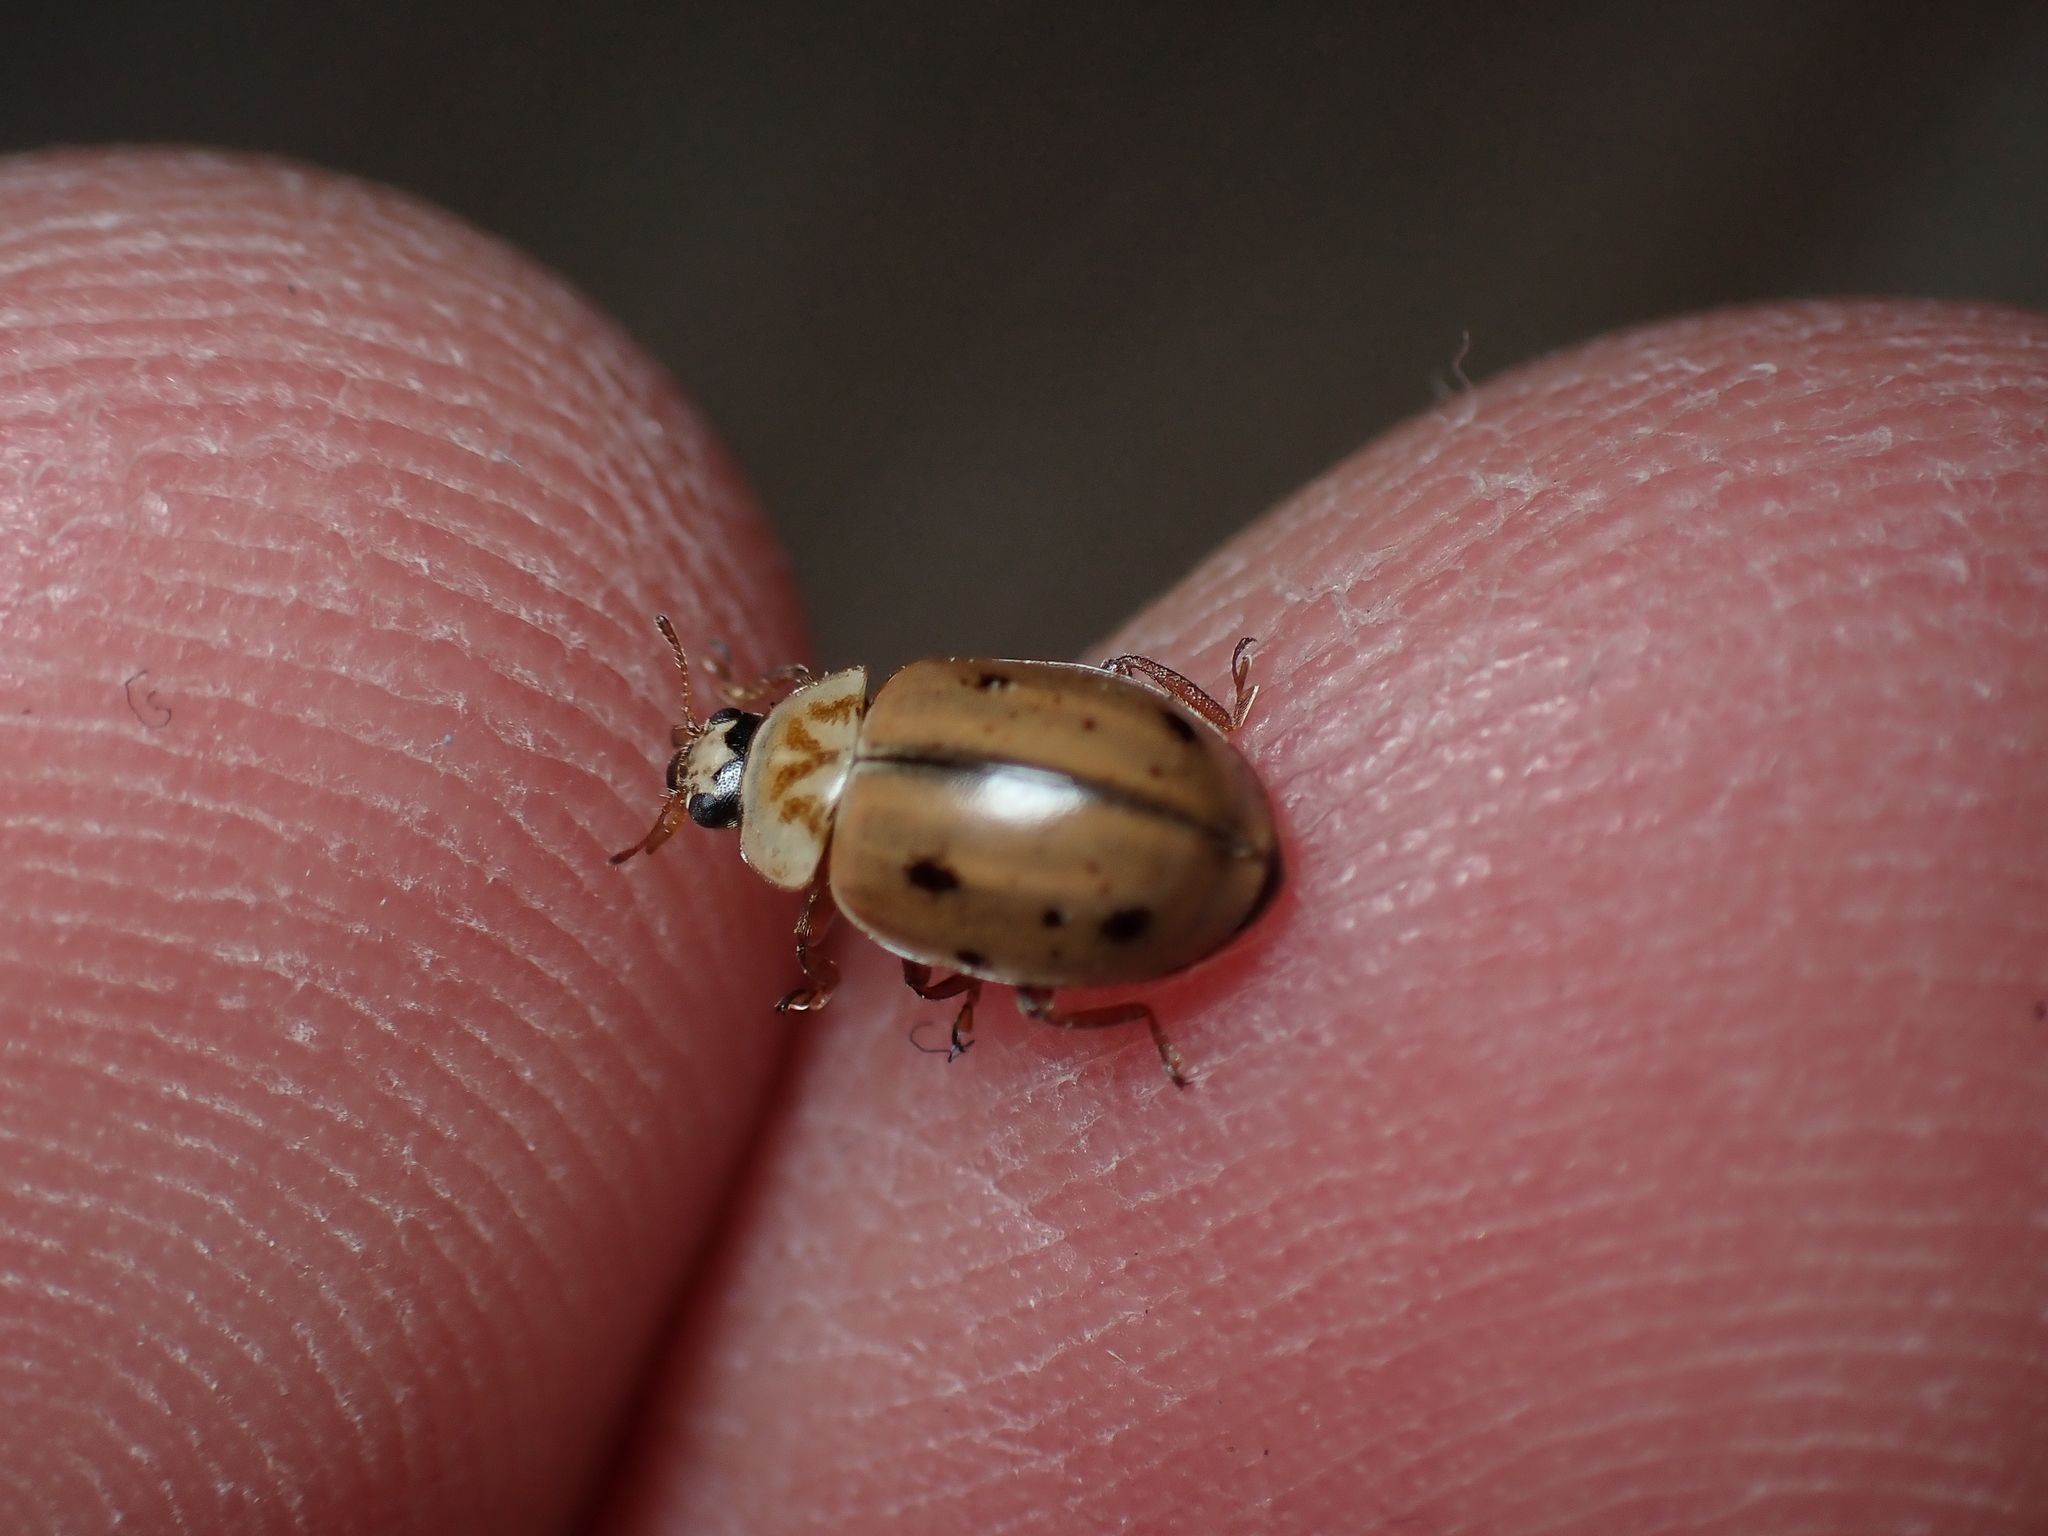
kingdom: Animalia
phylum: Arthropoda
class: Insecta
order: Coleoptera
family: Coccinellidae
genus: Aphidecta
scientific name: Aphidecta obliterata
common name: Larch ladybird
